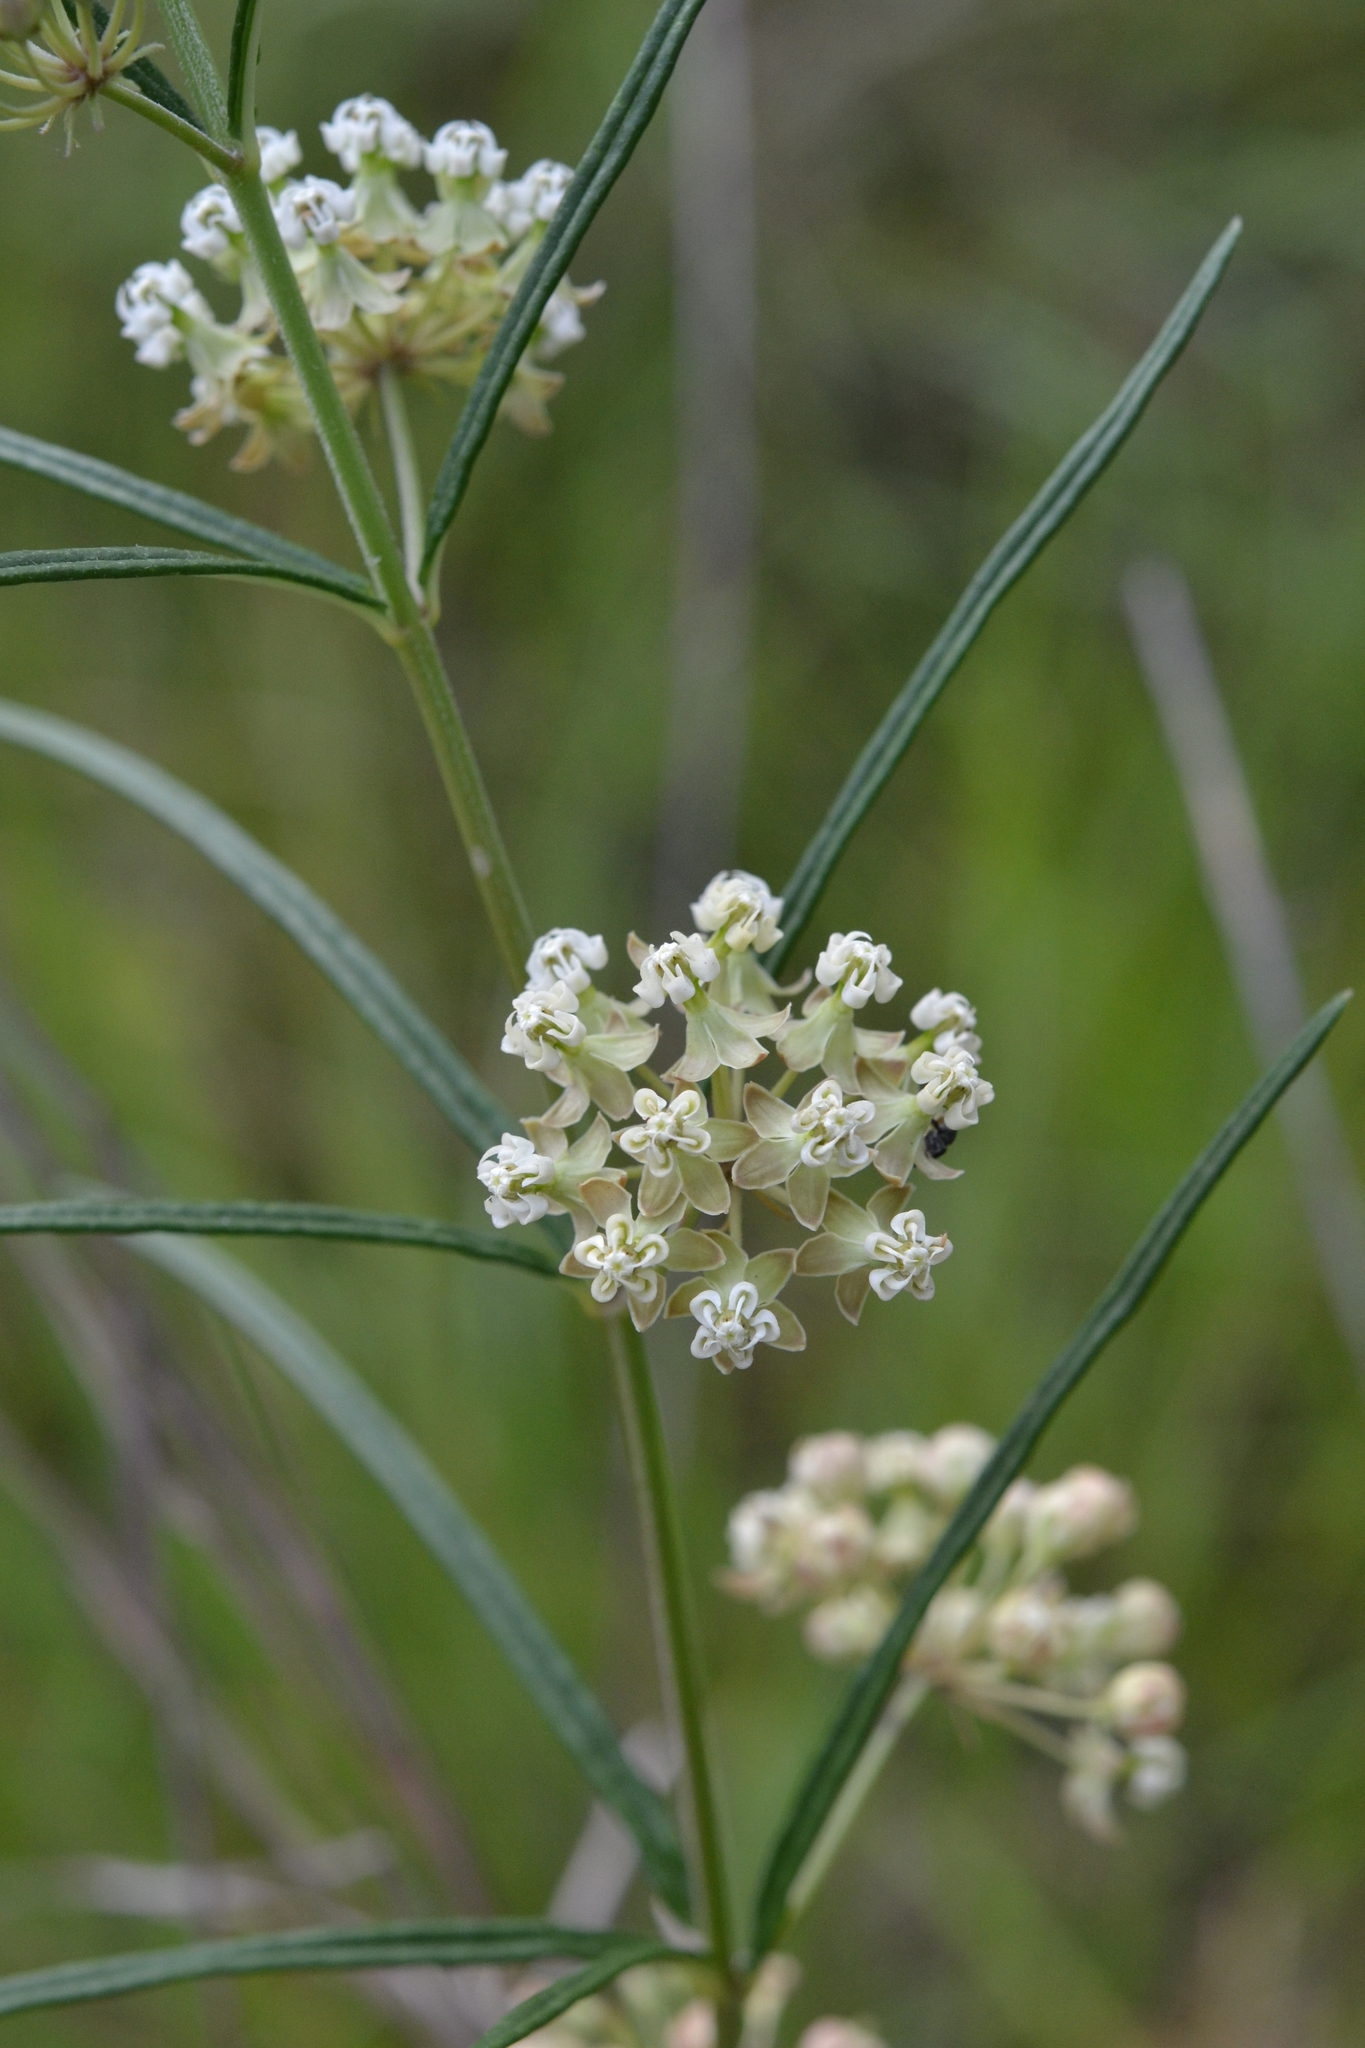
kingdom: Plantae
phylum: Tracheophyta
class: Magnoliopsida
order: Gentianales
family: Apocynaceae
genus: Asclepias
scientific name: Asclepias verticillata
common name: Eastern whorled milkweed
